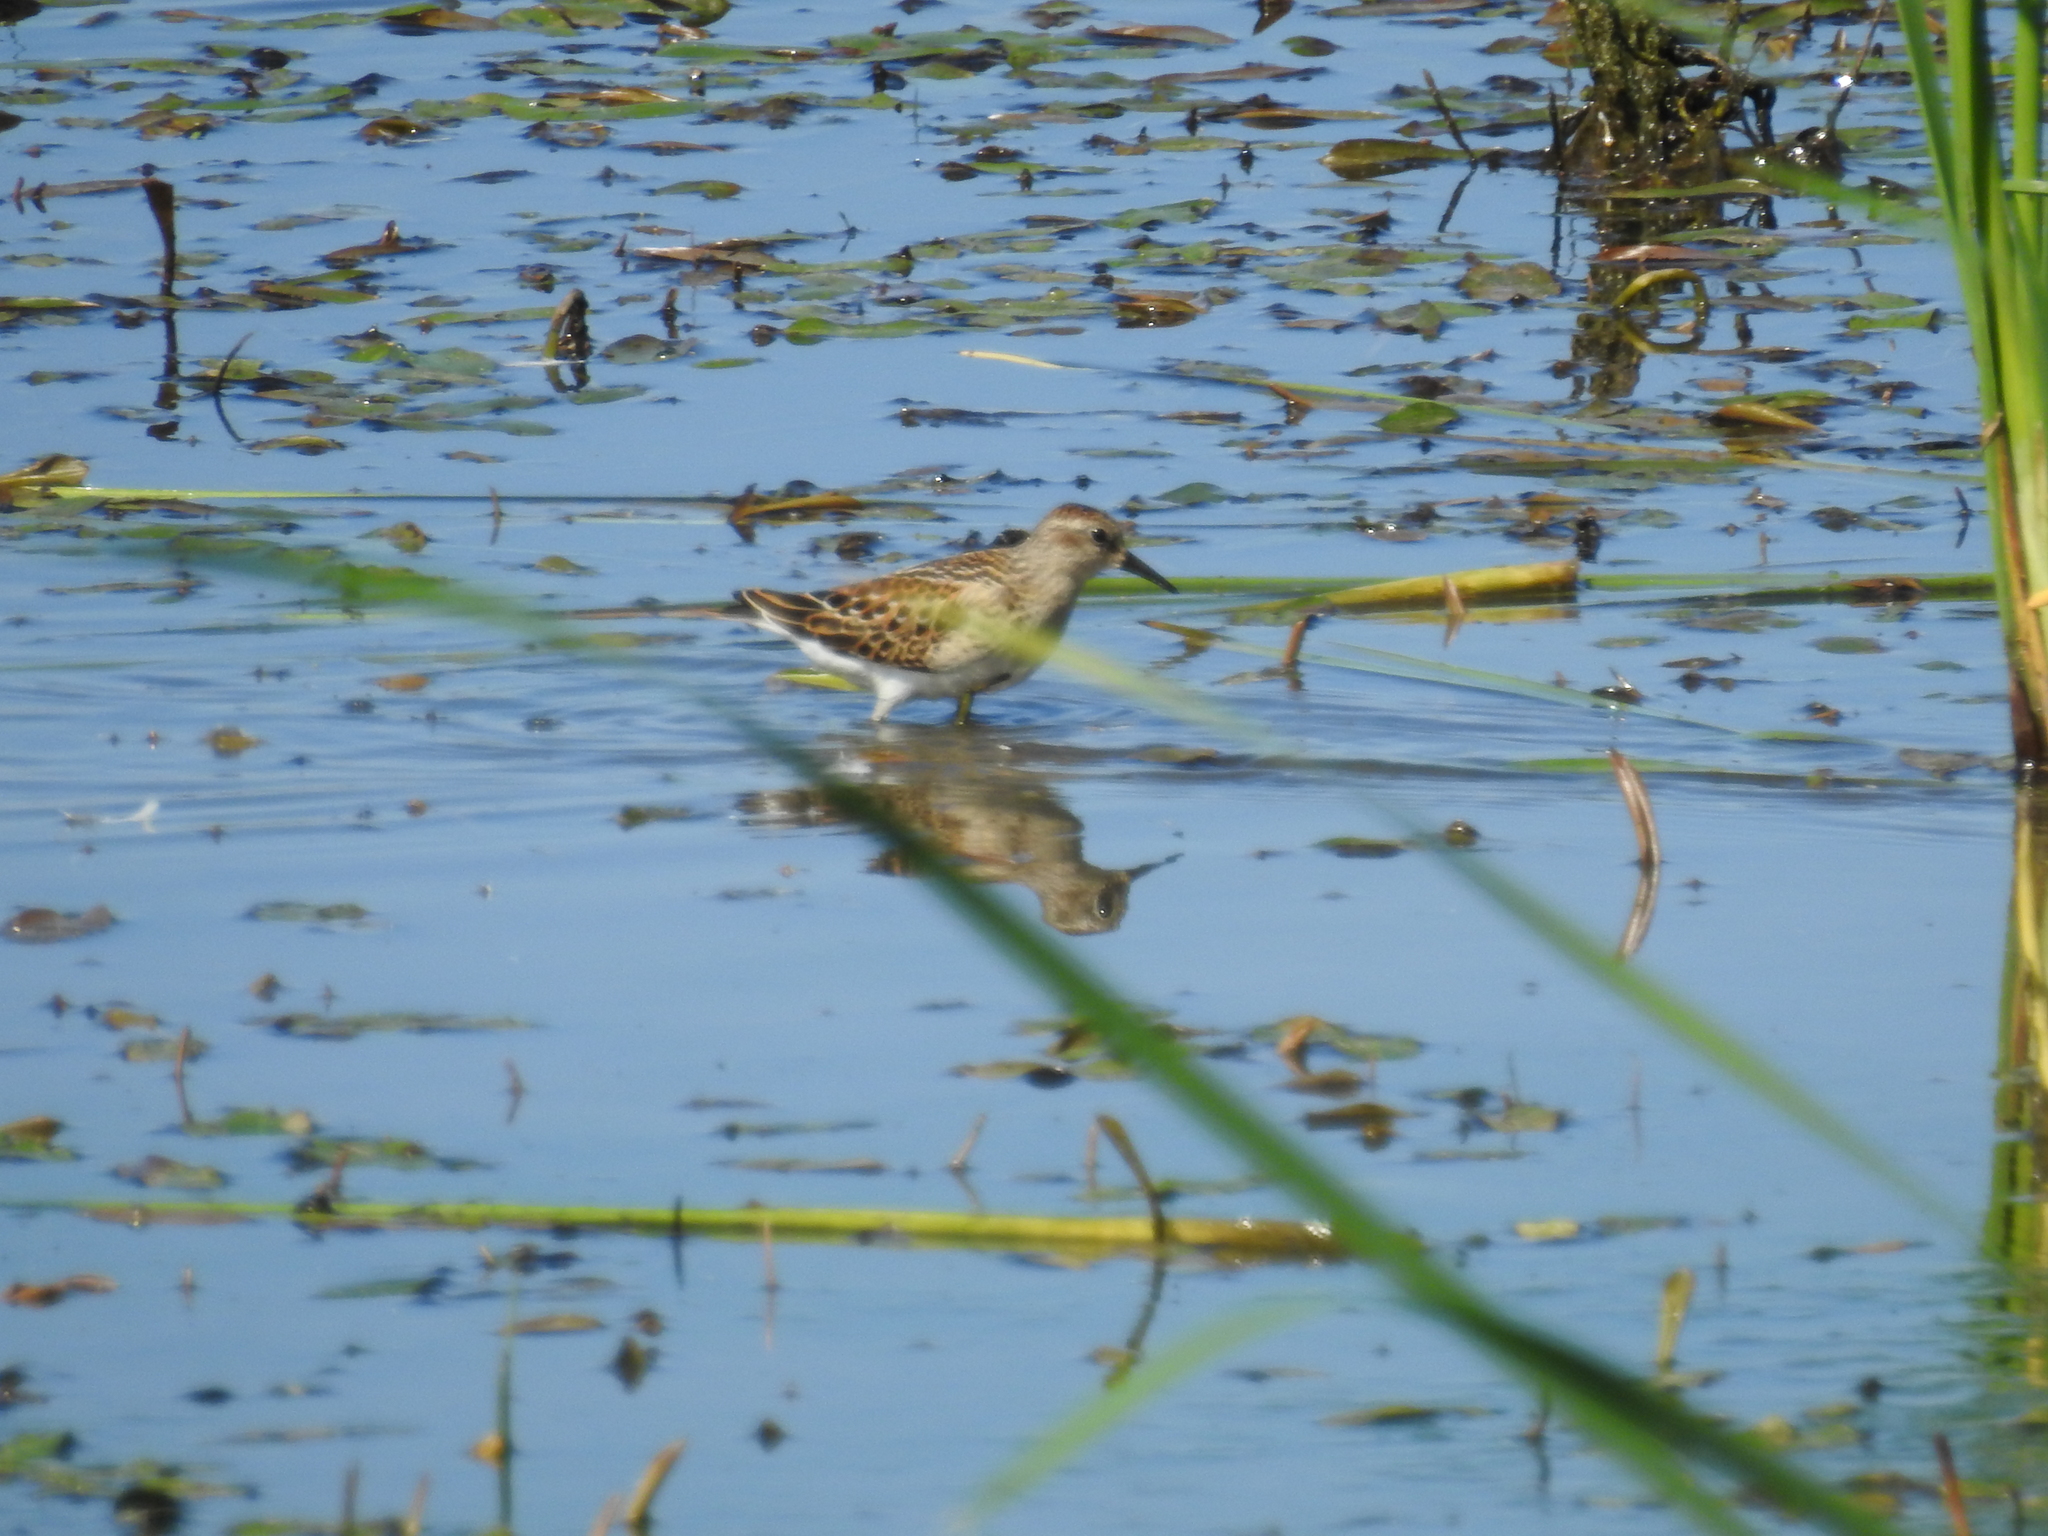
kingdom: Animalia
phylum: Chordata
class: Aves
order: Charadriiformes
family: Scolopacidae
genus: Calidris
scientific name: Calidris minutilla
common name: Least sandpiper
